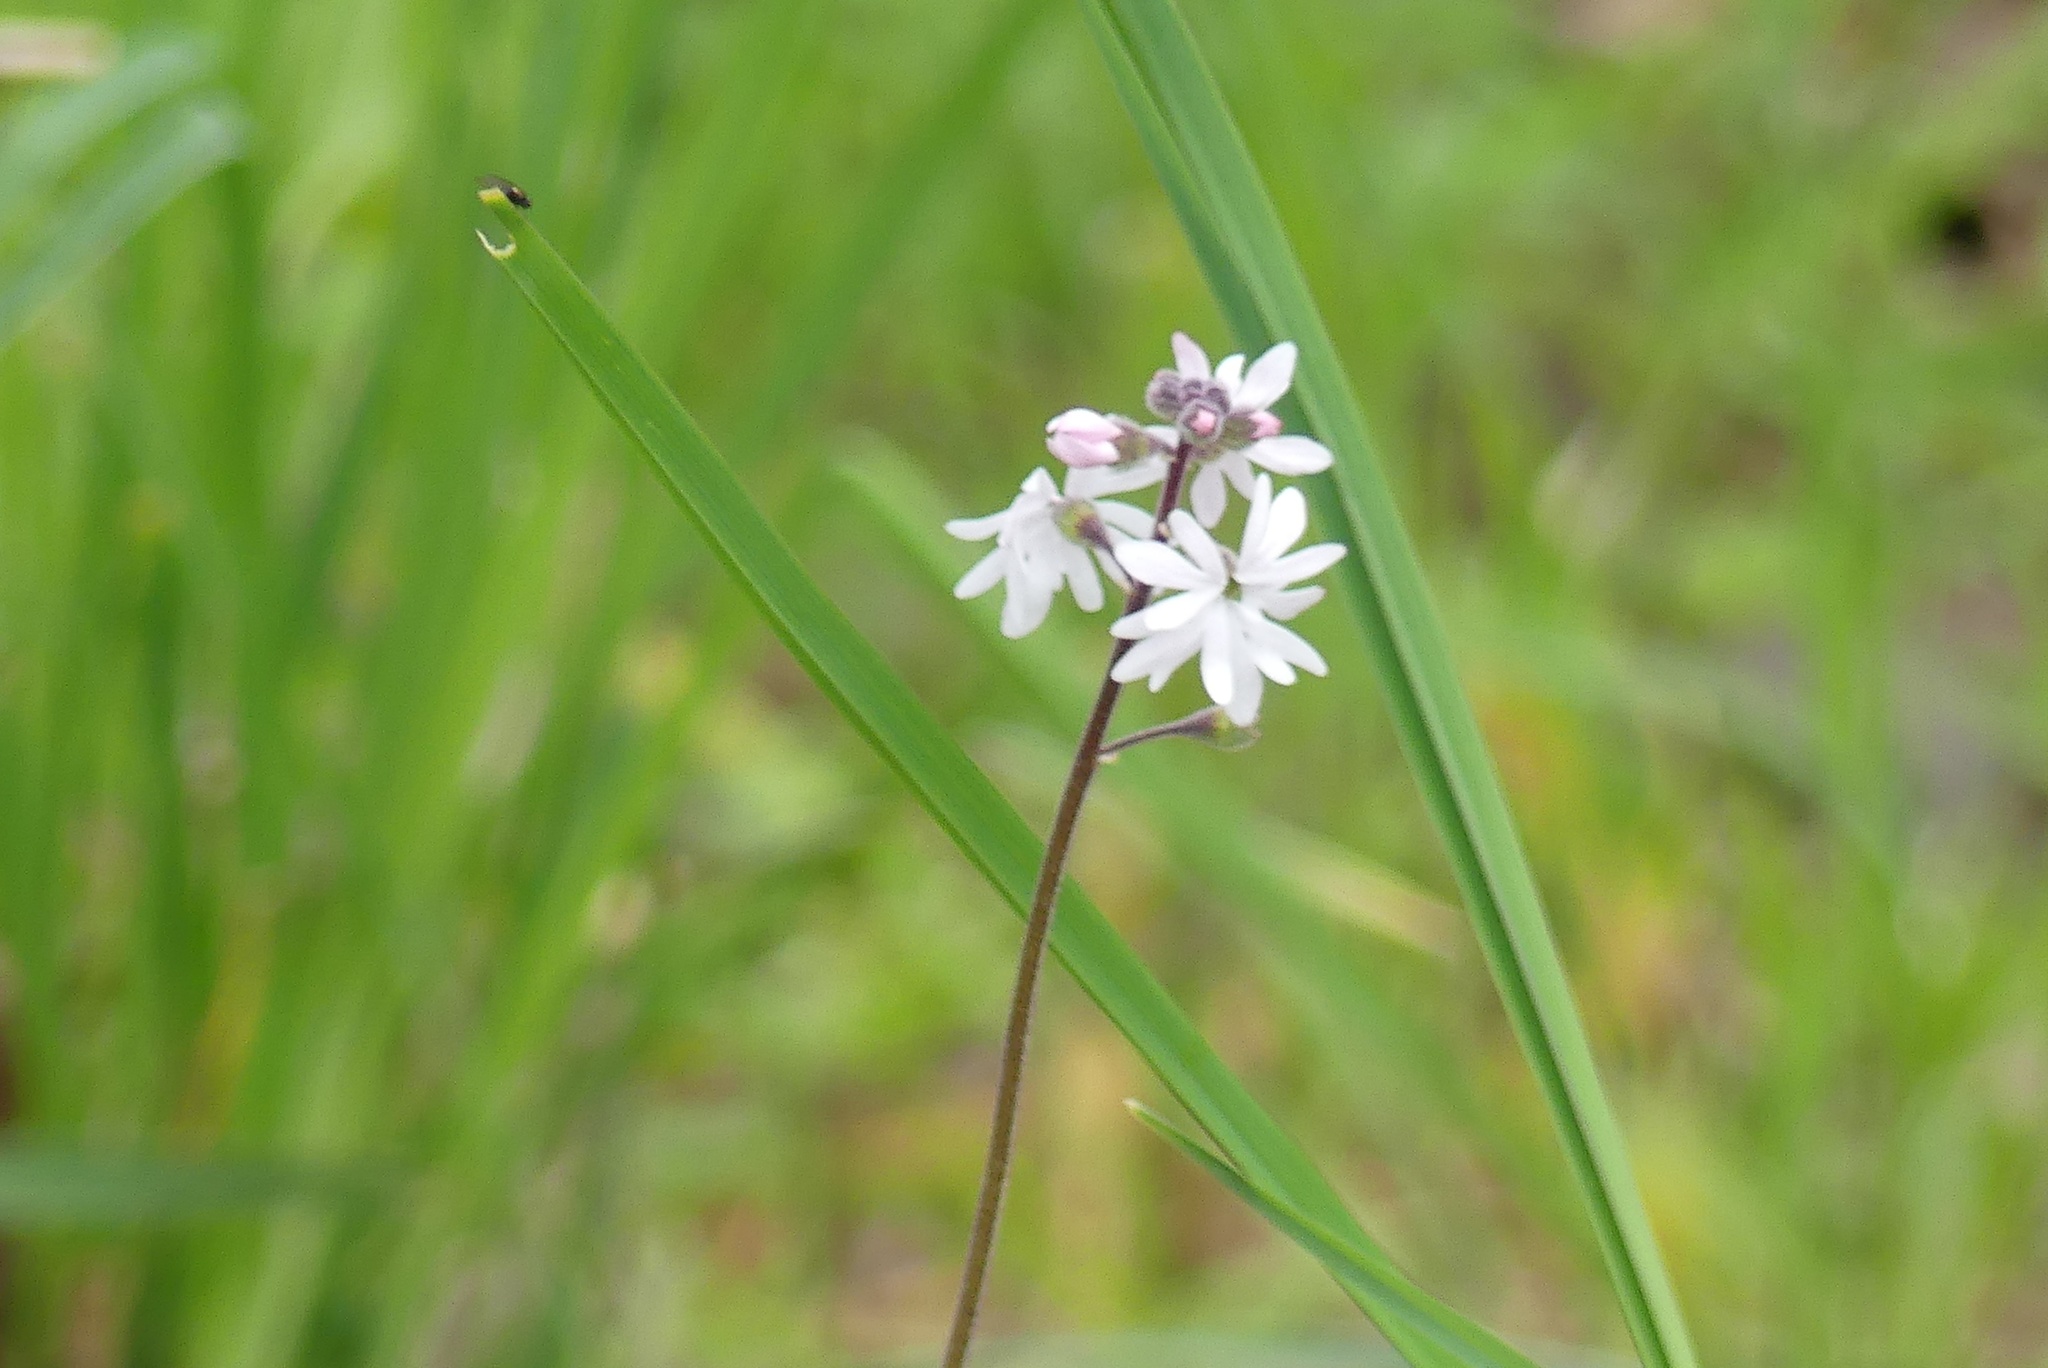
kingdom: Plantae
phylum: Tracheophyta
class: Magnoliopsida
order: Saxifragales
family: Saxifragaceae
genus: Lithophragma
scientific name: Lithophragma parviflorum
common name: Small-flowered fringe-cup
